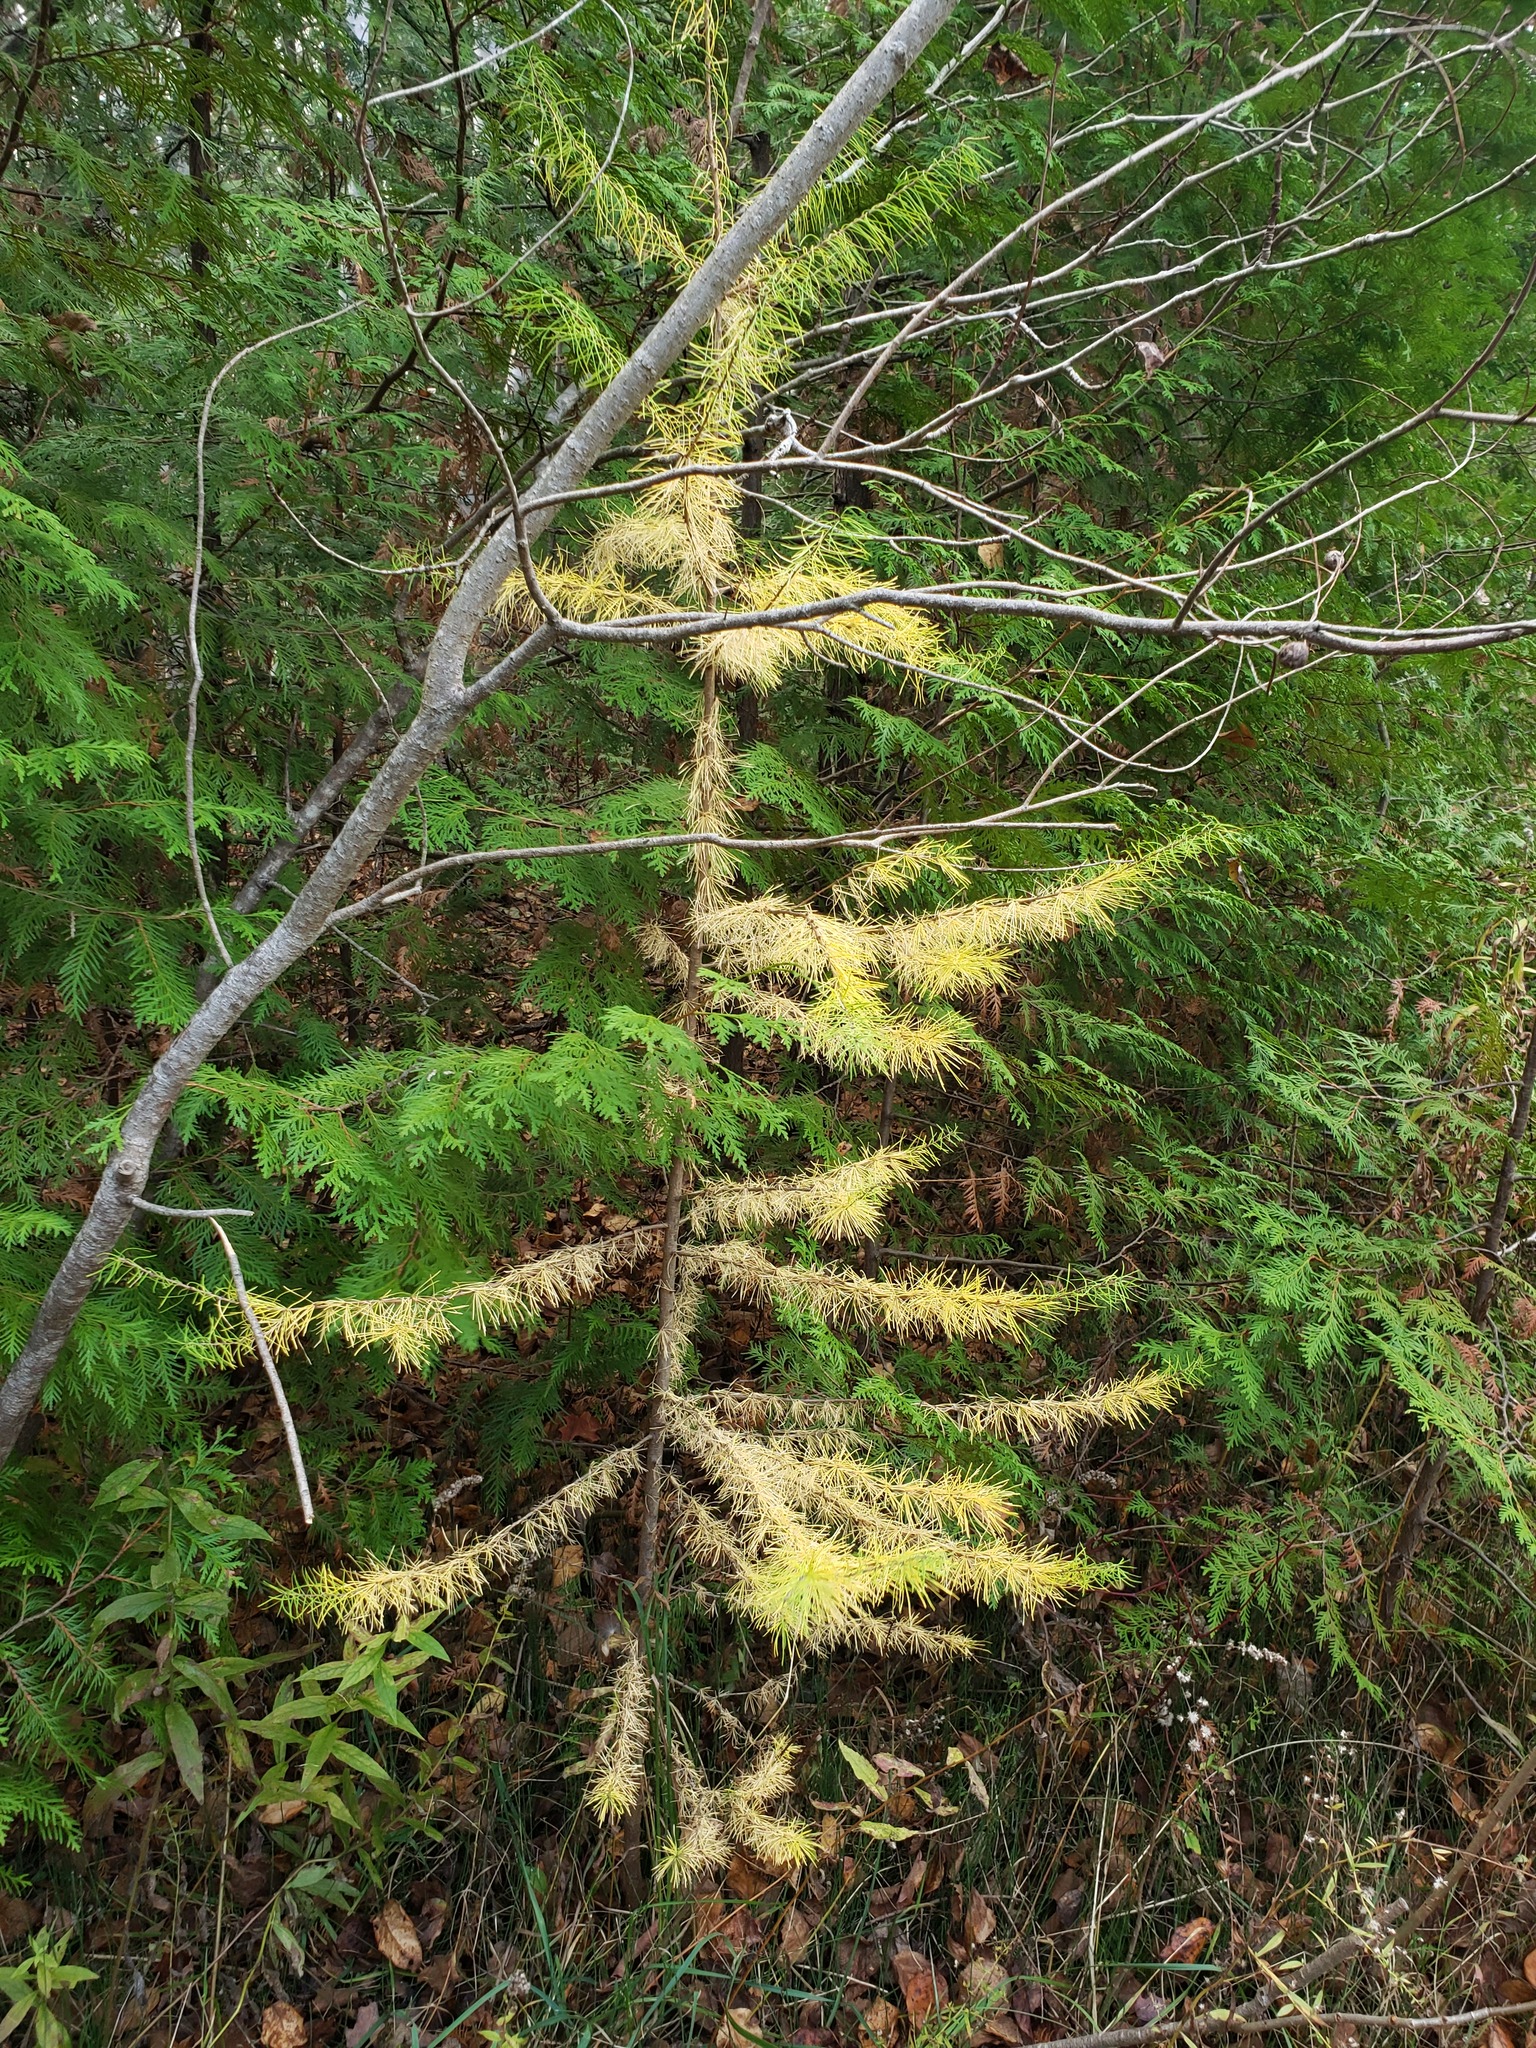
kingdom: Plantae
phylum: Tracheophyta
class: Pinopsida
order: Pinales
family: Pinaceae
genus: Larix
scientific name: Larix laricina
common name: American larch
